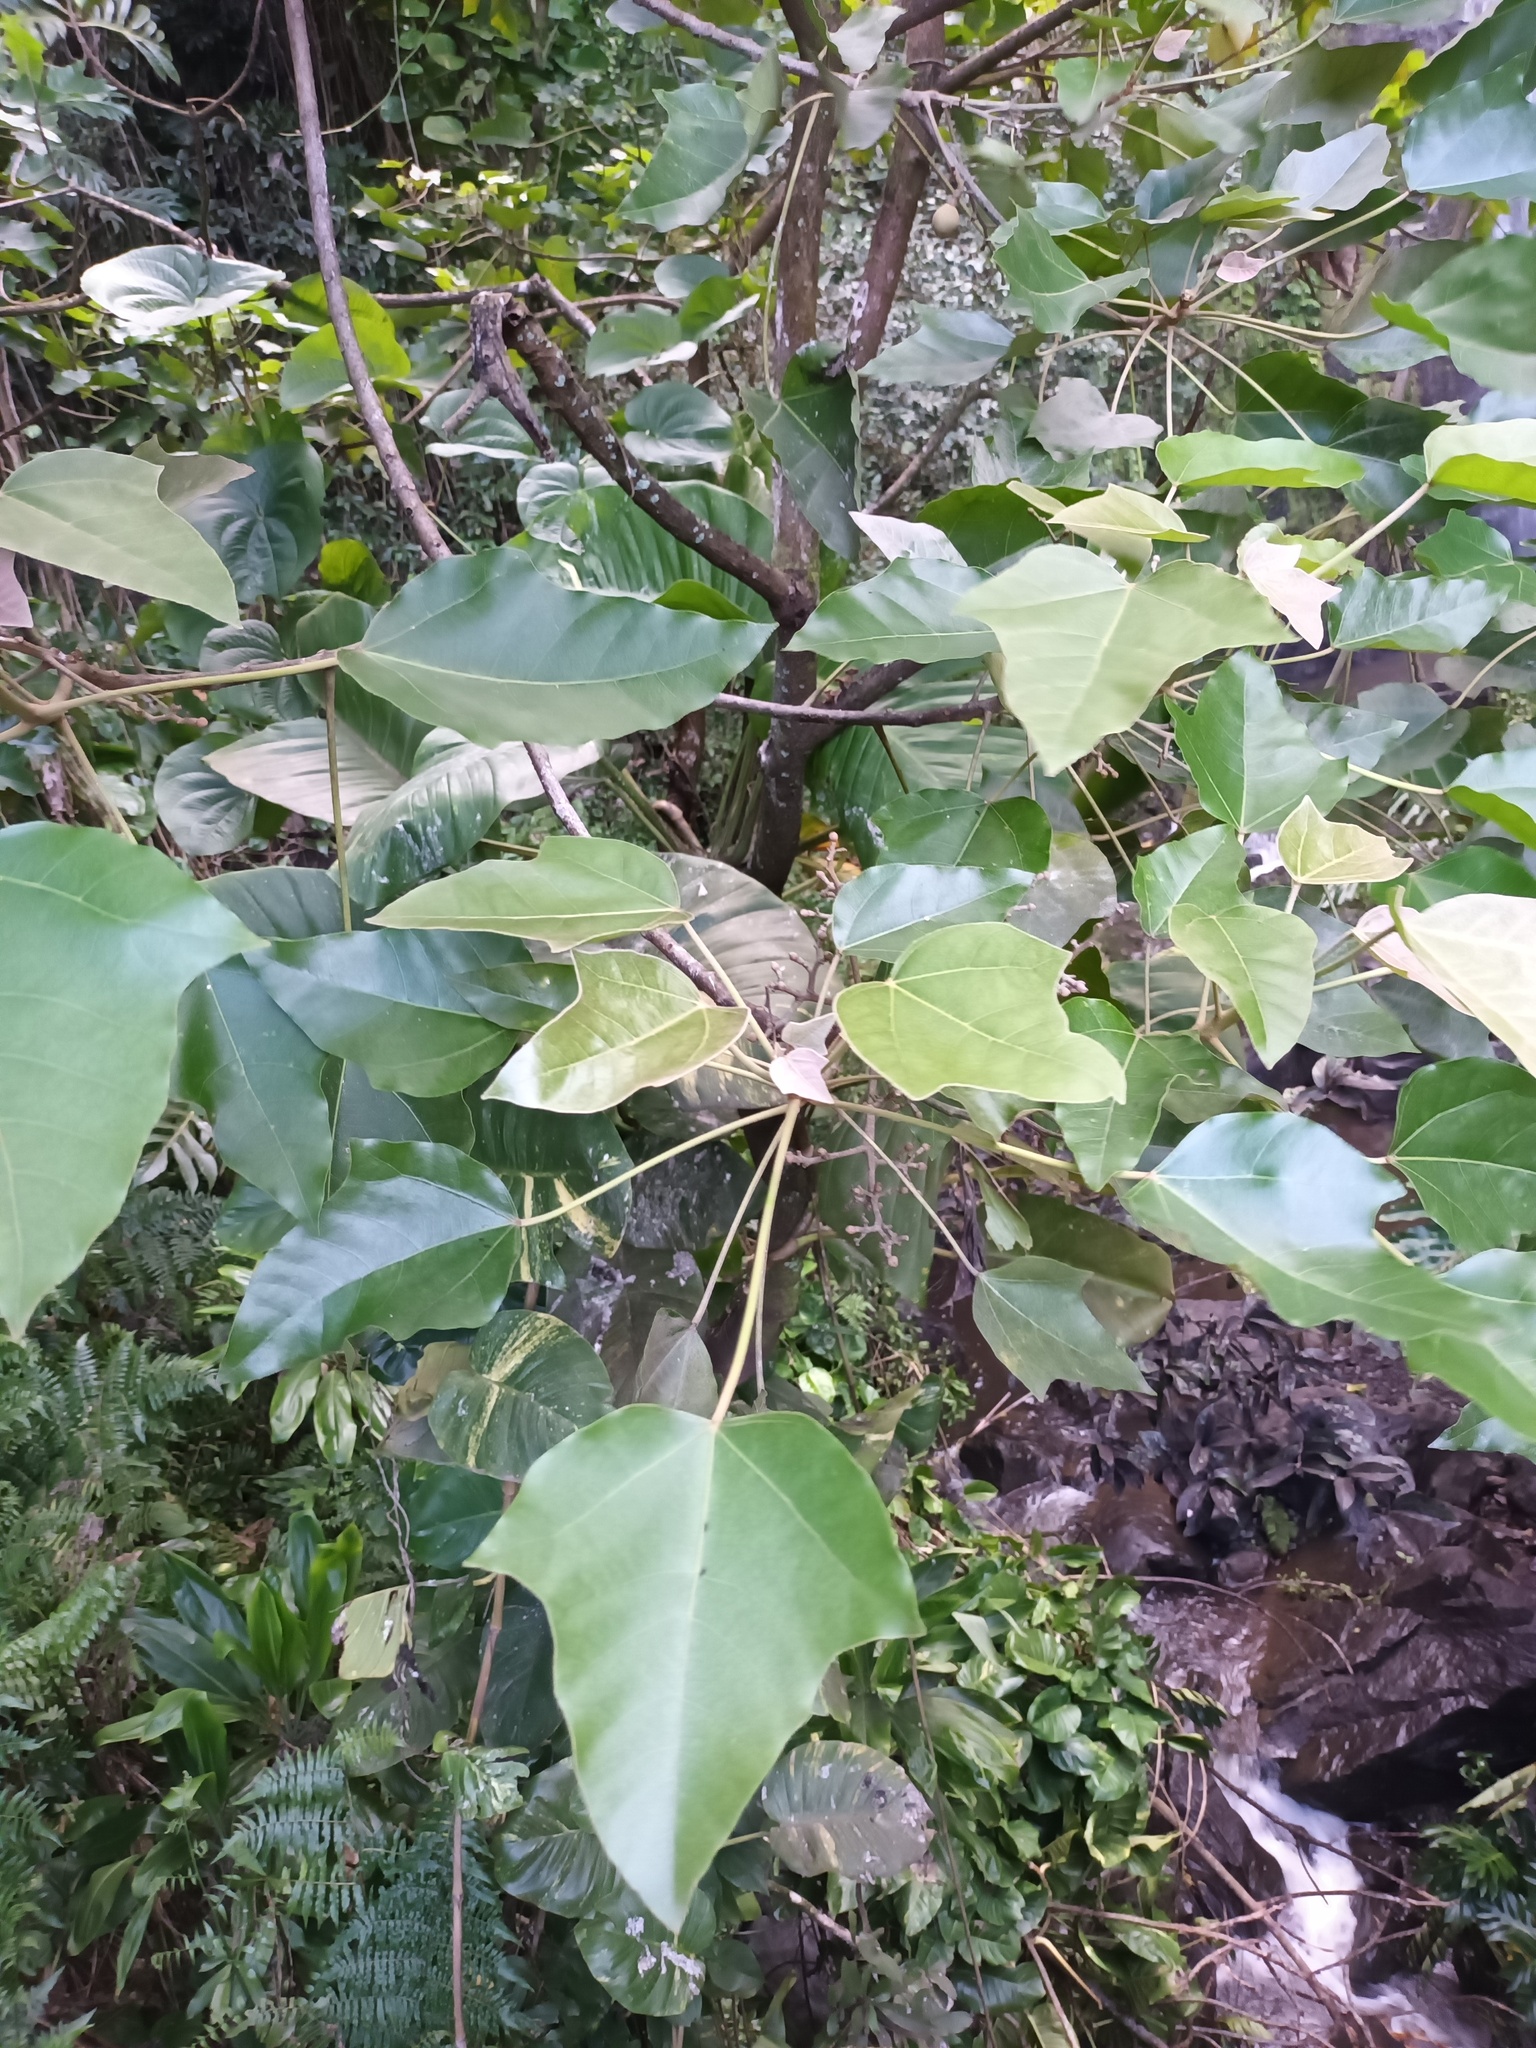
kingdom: Plantae
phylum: Tracheophyta
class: Magnoliopsida
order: Malpighiales
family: Euphorbiaceae
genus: Aleurites
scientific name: Aleurites moluccanus
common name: Candlenut tree
